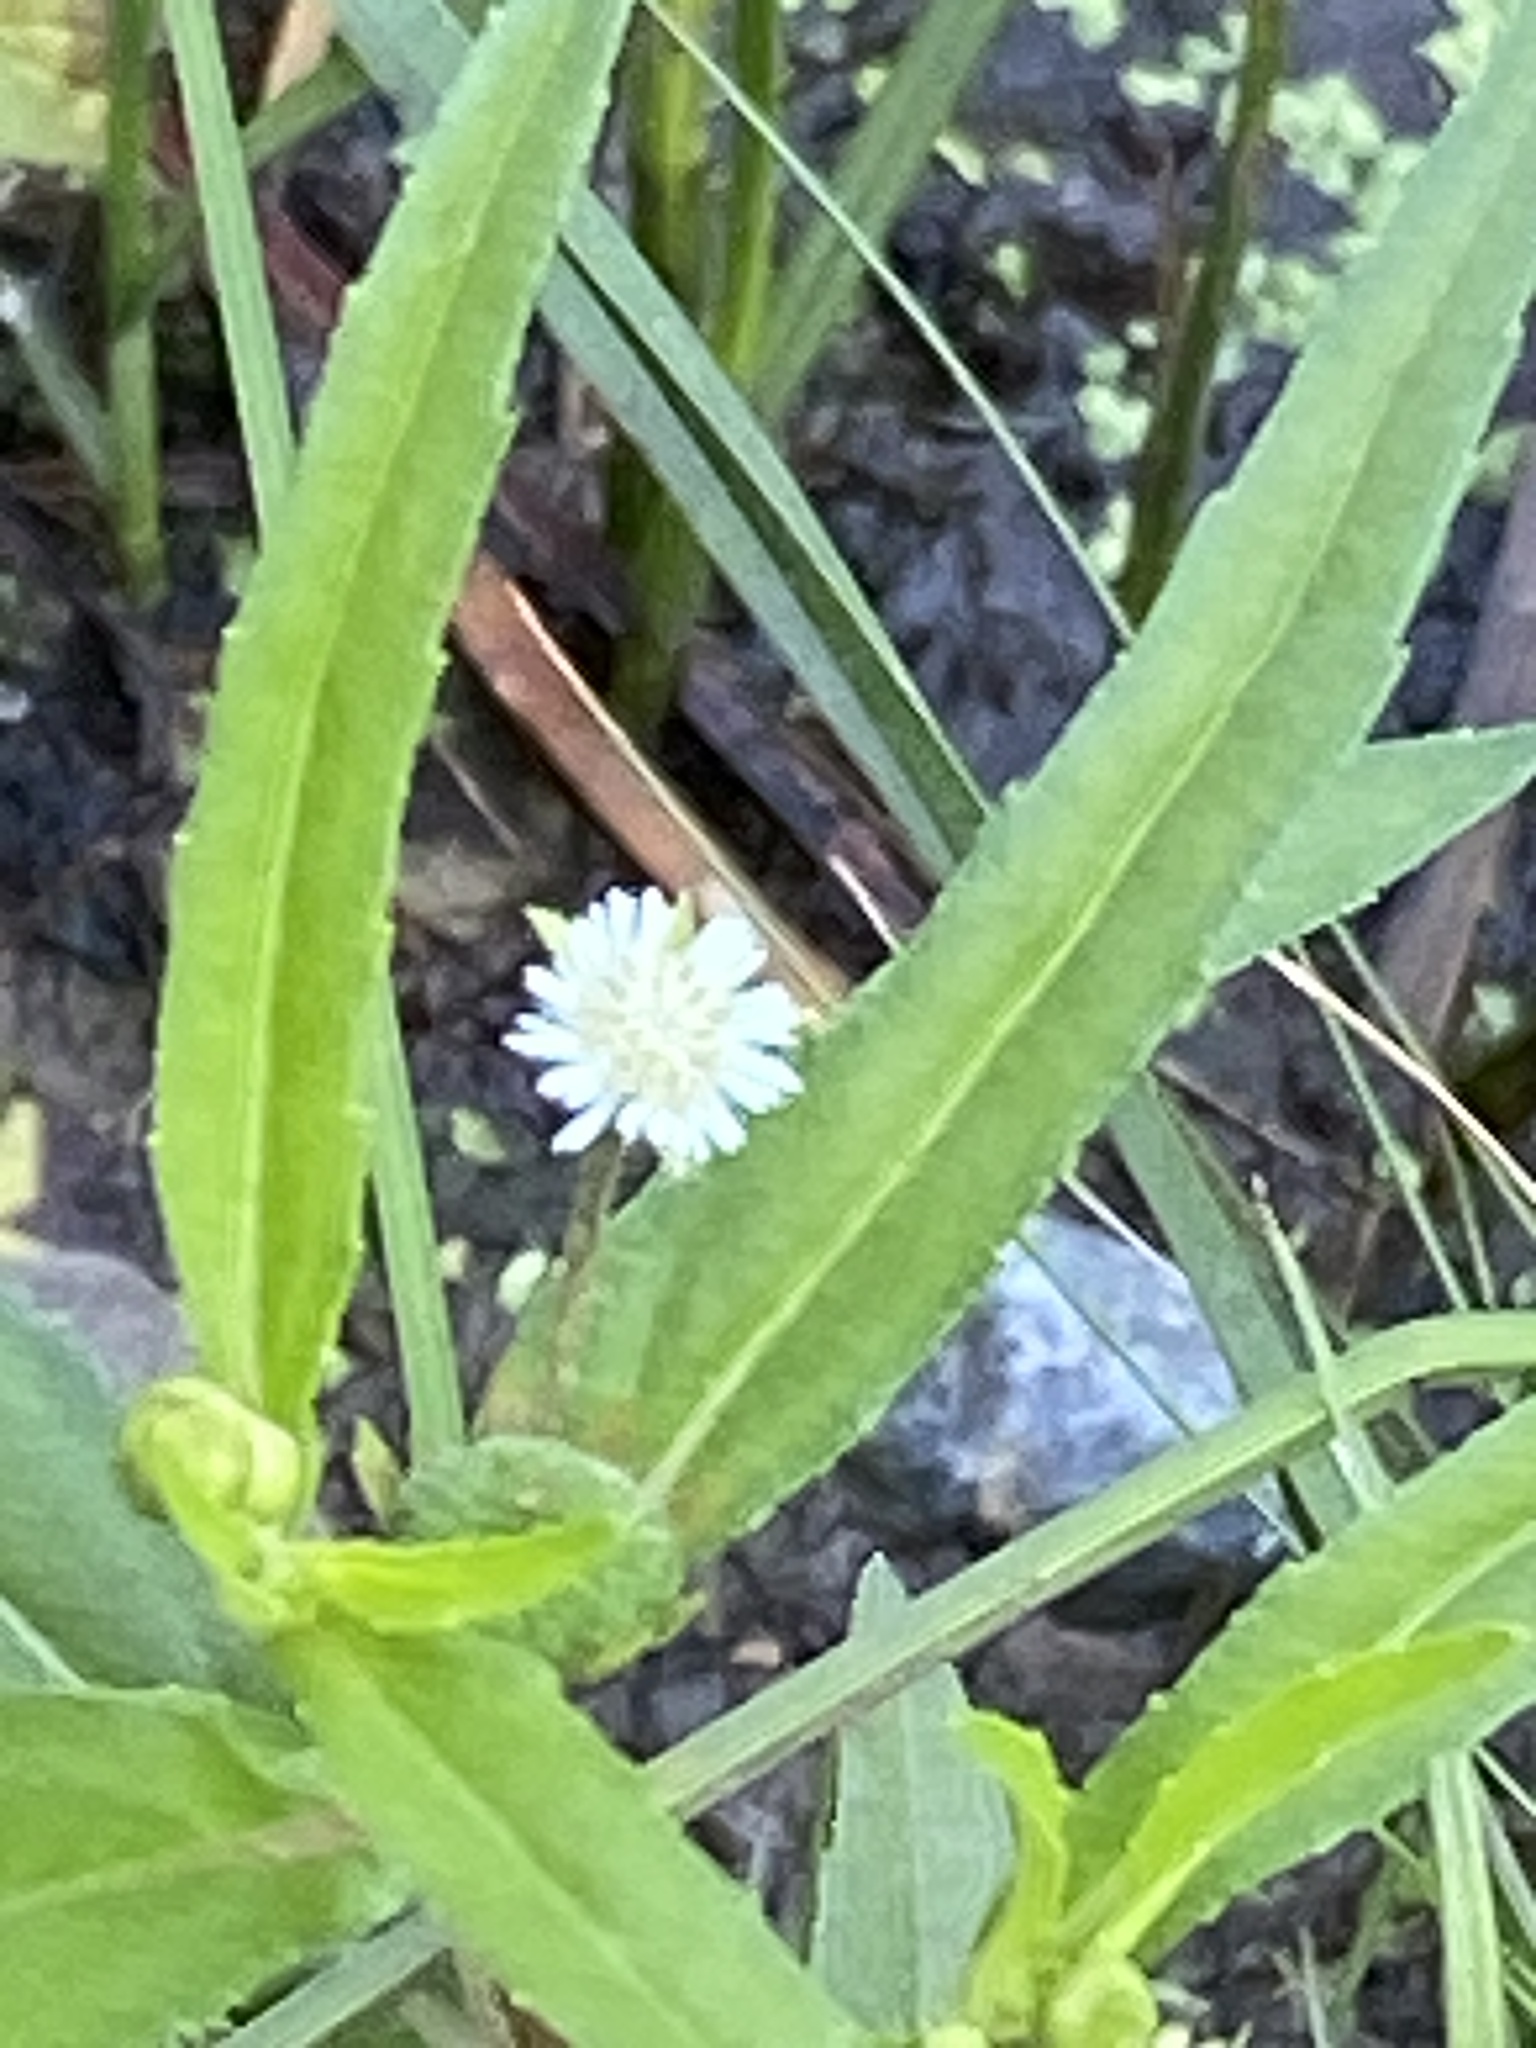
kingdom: Plantae
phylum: Tracheophyta
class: Magnoliopsida
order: Asterales
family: Asteraceae
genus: Eclipta
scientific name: Eclipta prostrata
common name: False daisy
